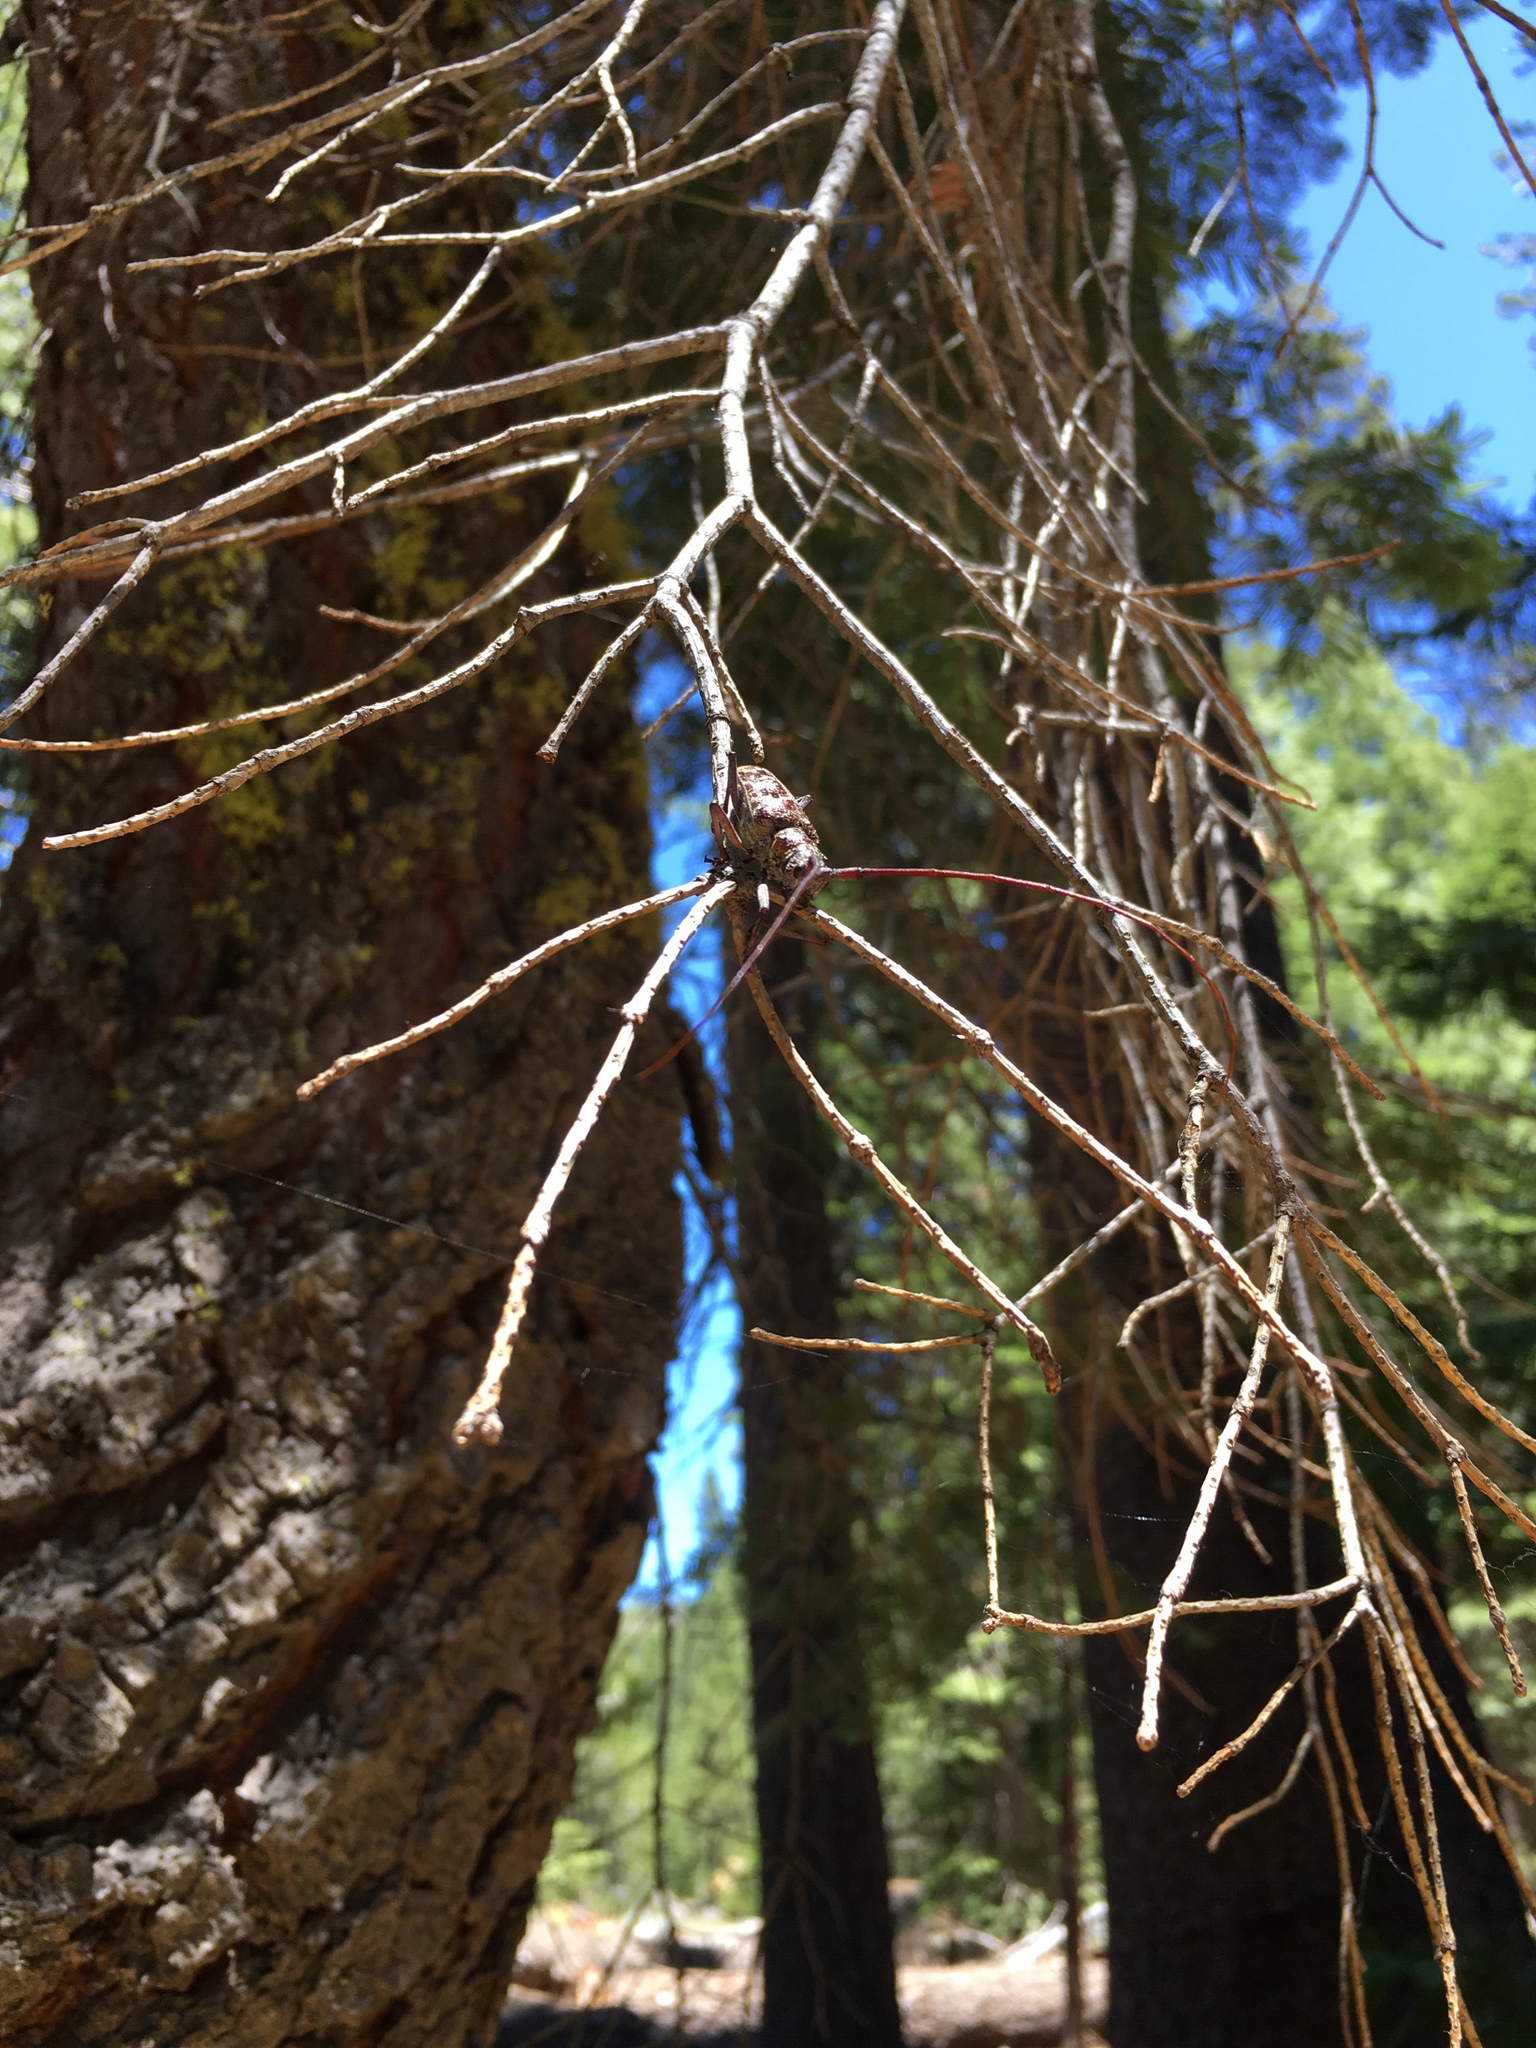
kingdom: Animalia
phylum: Arthropoda
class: Insecta
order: Coleoptera
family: Cerambycidae
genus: Monochamus
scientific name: Monochamus obtusus
